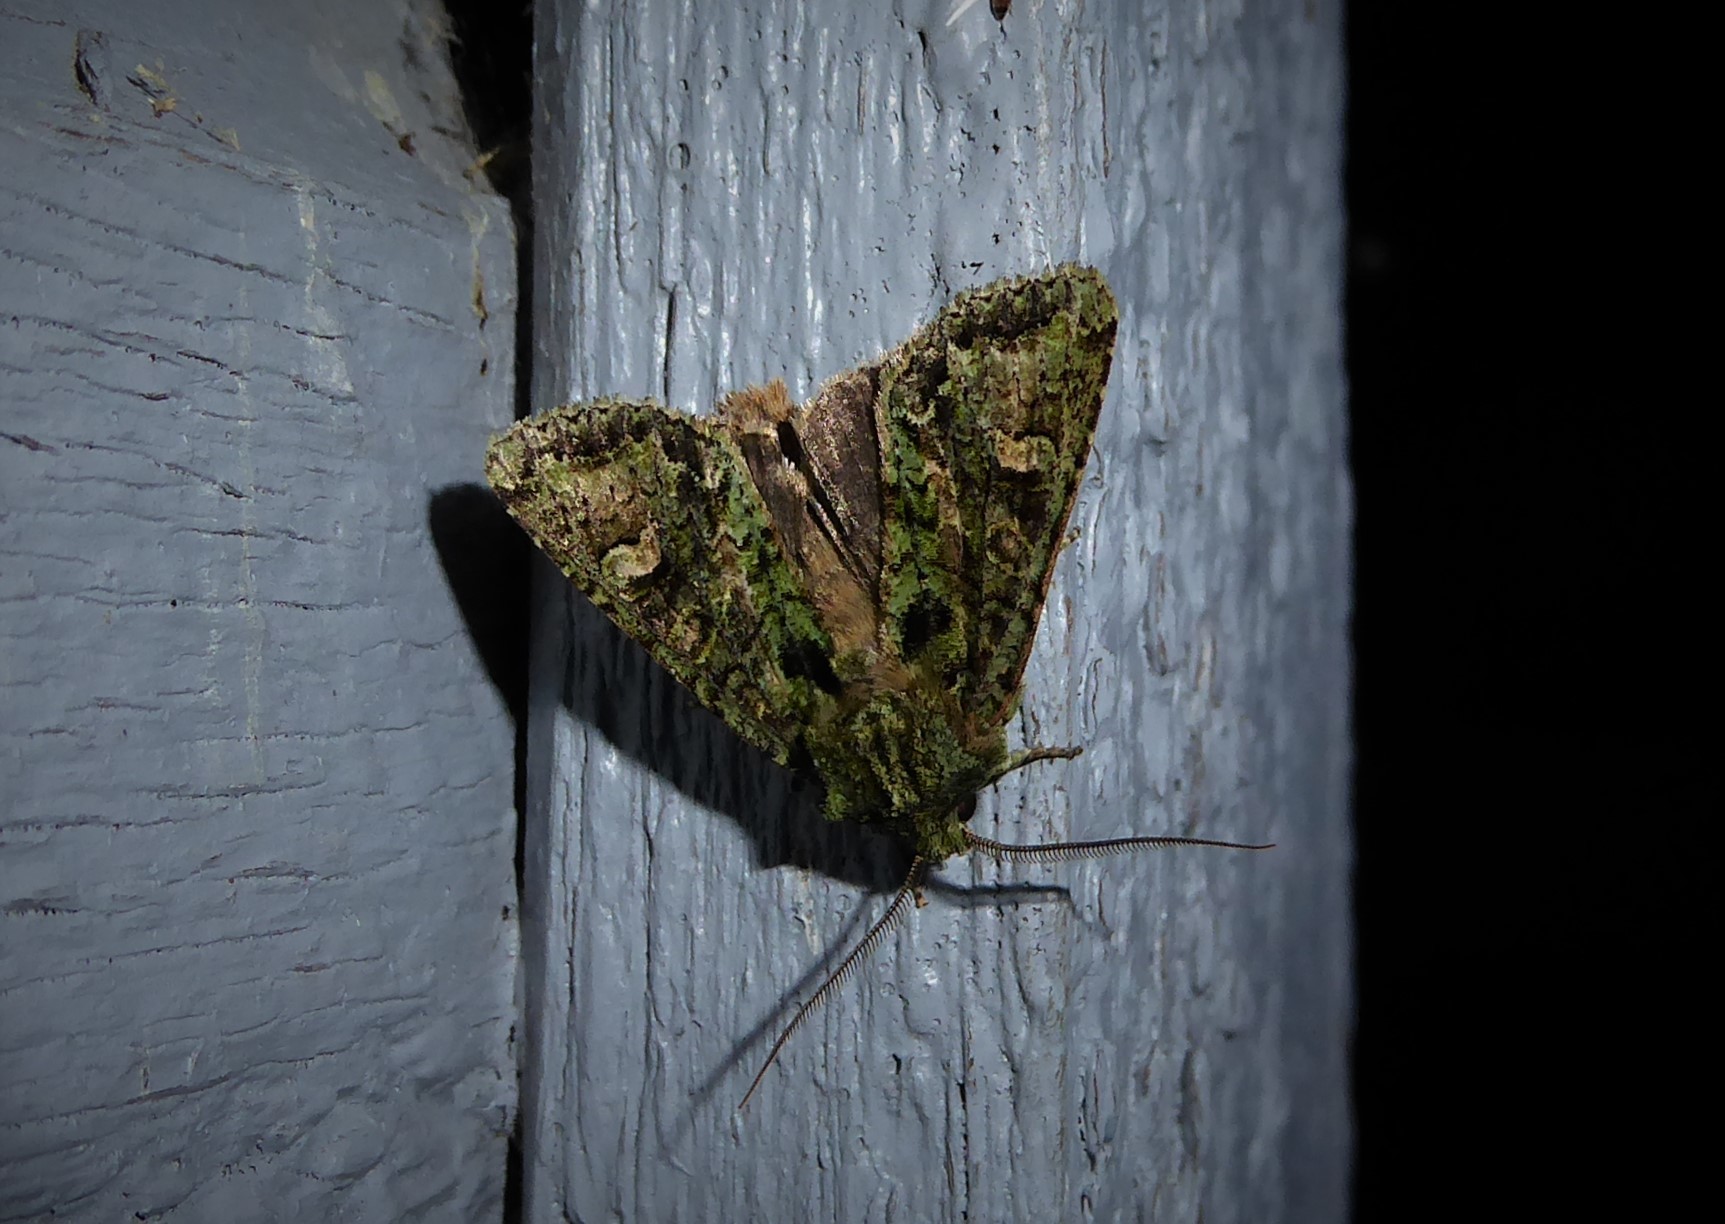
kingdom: Animalia
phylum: Arthropoda
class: Insecta
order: Lepidoptera
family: Noctuidae
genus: Ichneutica
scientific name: Ichneutica
